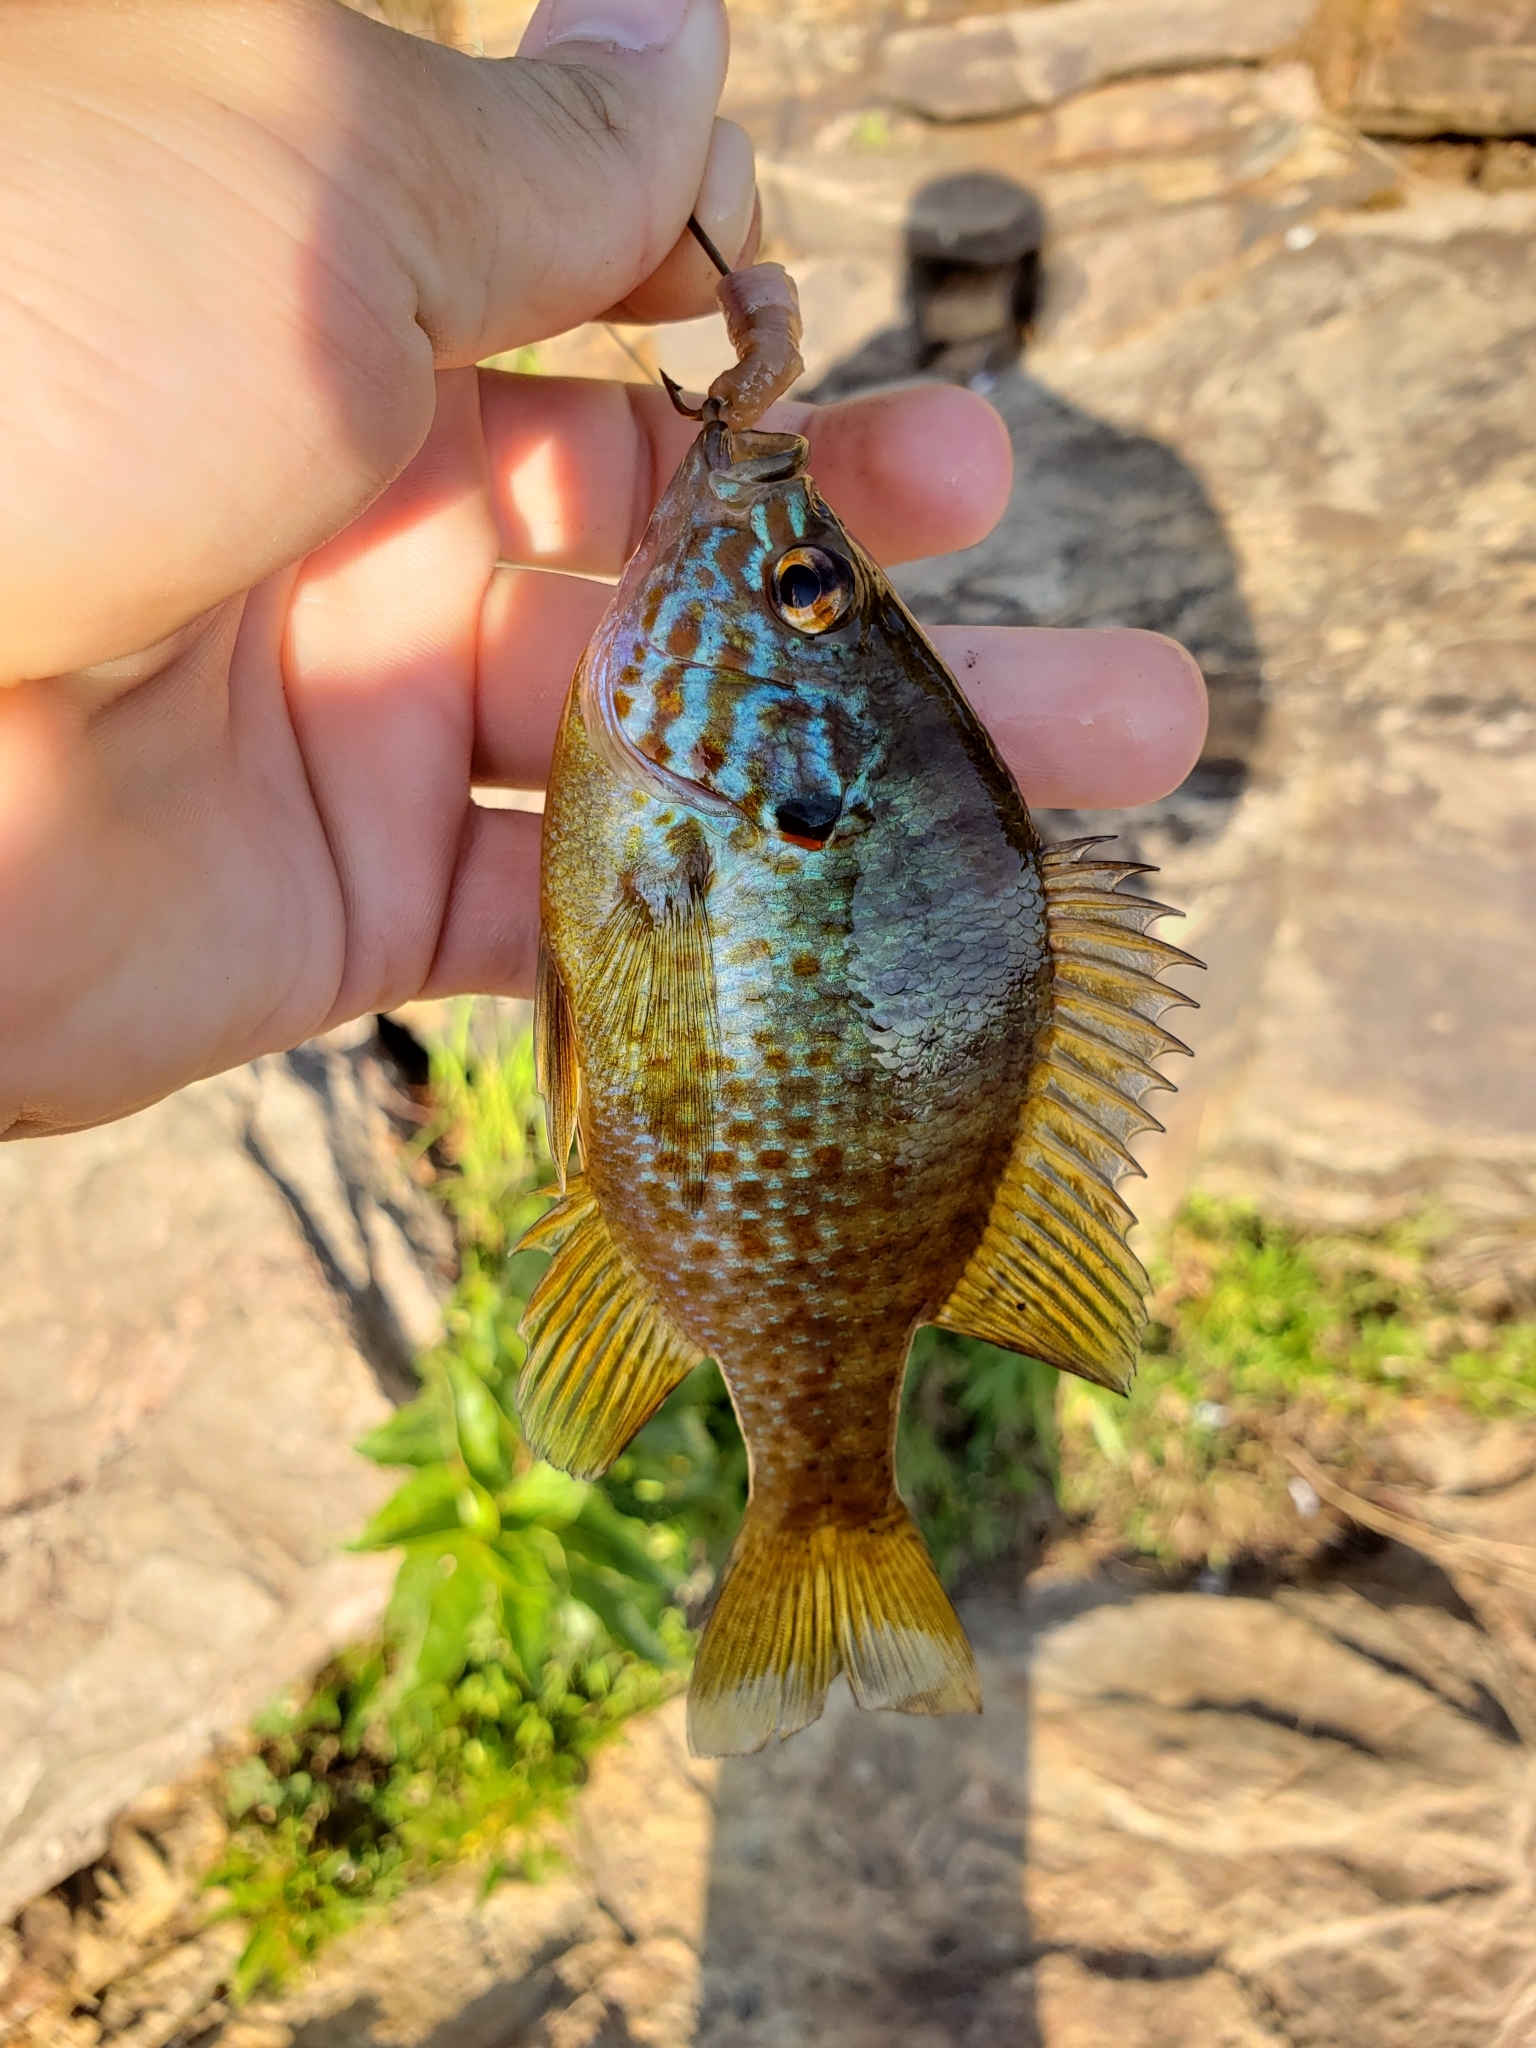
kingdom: Animalia
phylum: Chordata
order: Perciformes
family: Centrarchidae
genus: Lepomis
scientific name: Lepomis gibbosus
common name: Pumpkinseed
